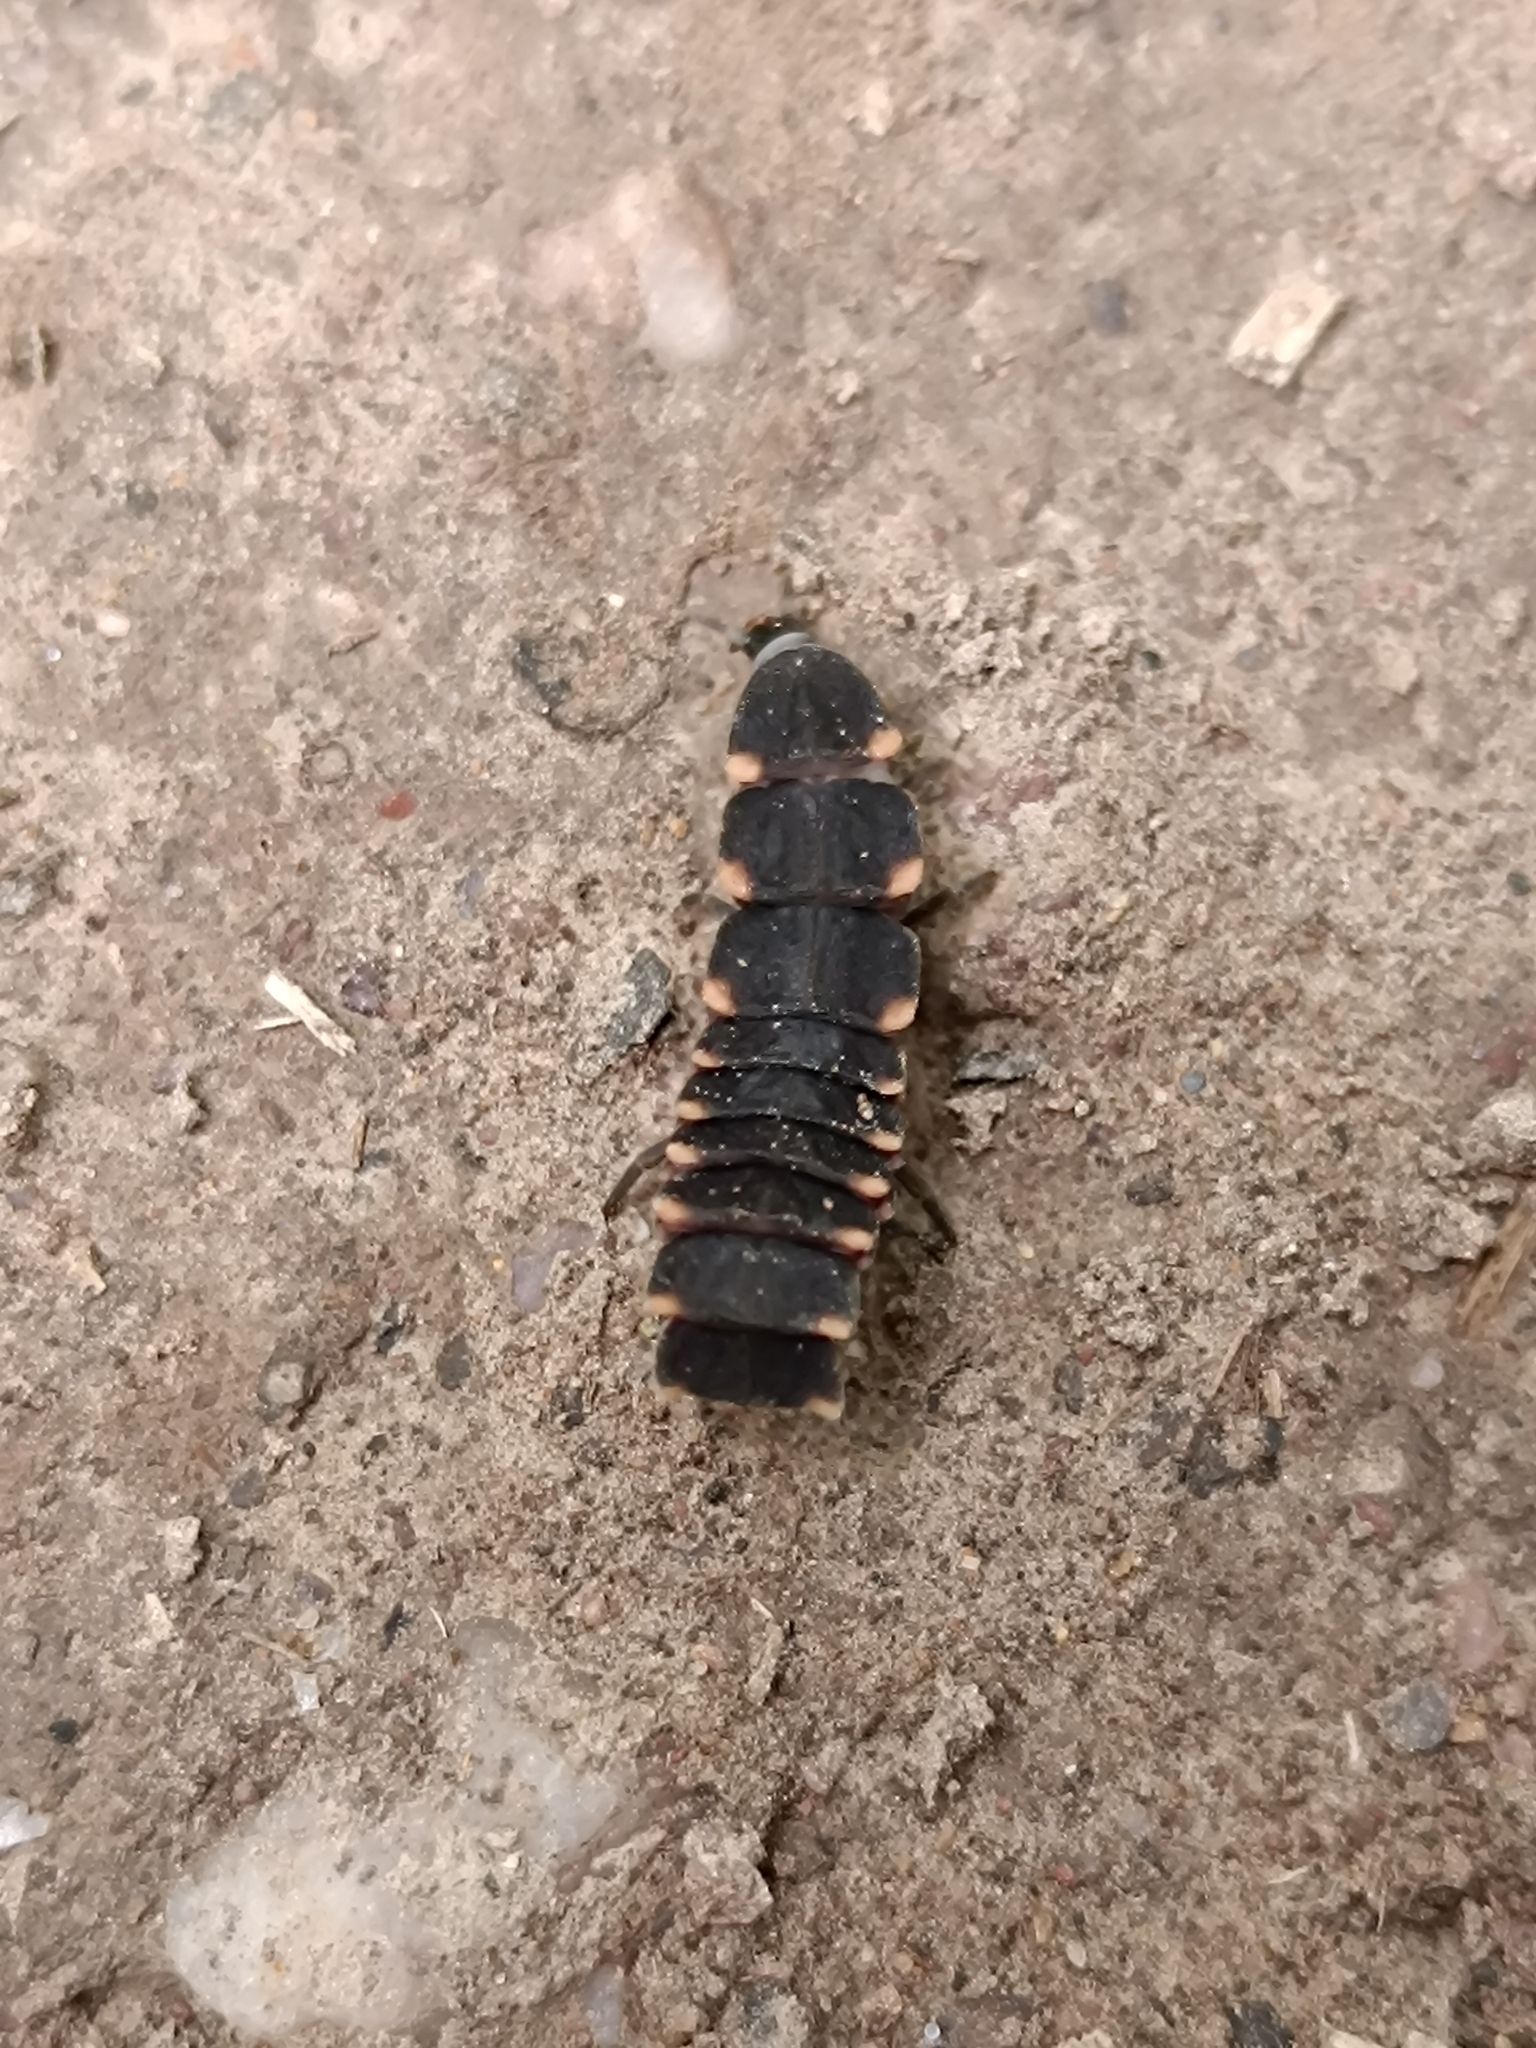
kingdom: Animalia
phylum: Arthropoda
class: Insecta
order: Coleoptera
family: Lampyridae
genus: Lampyris
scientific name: Lampyris noctiluca
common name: Glow-worm
